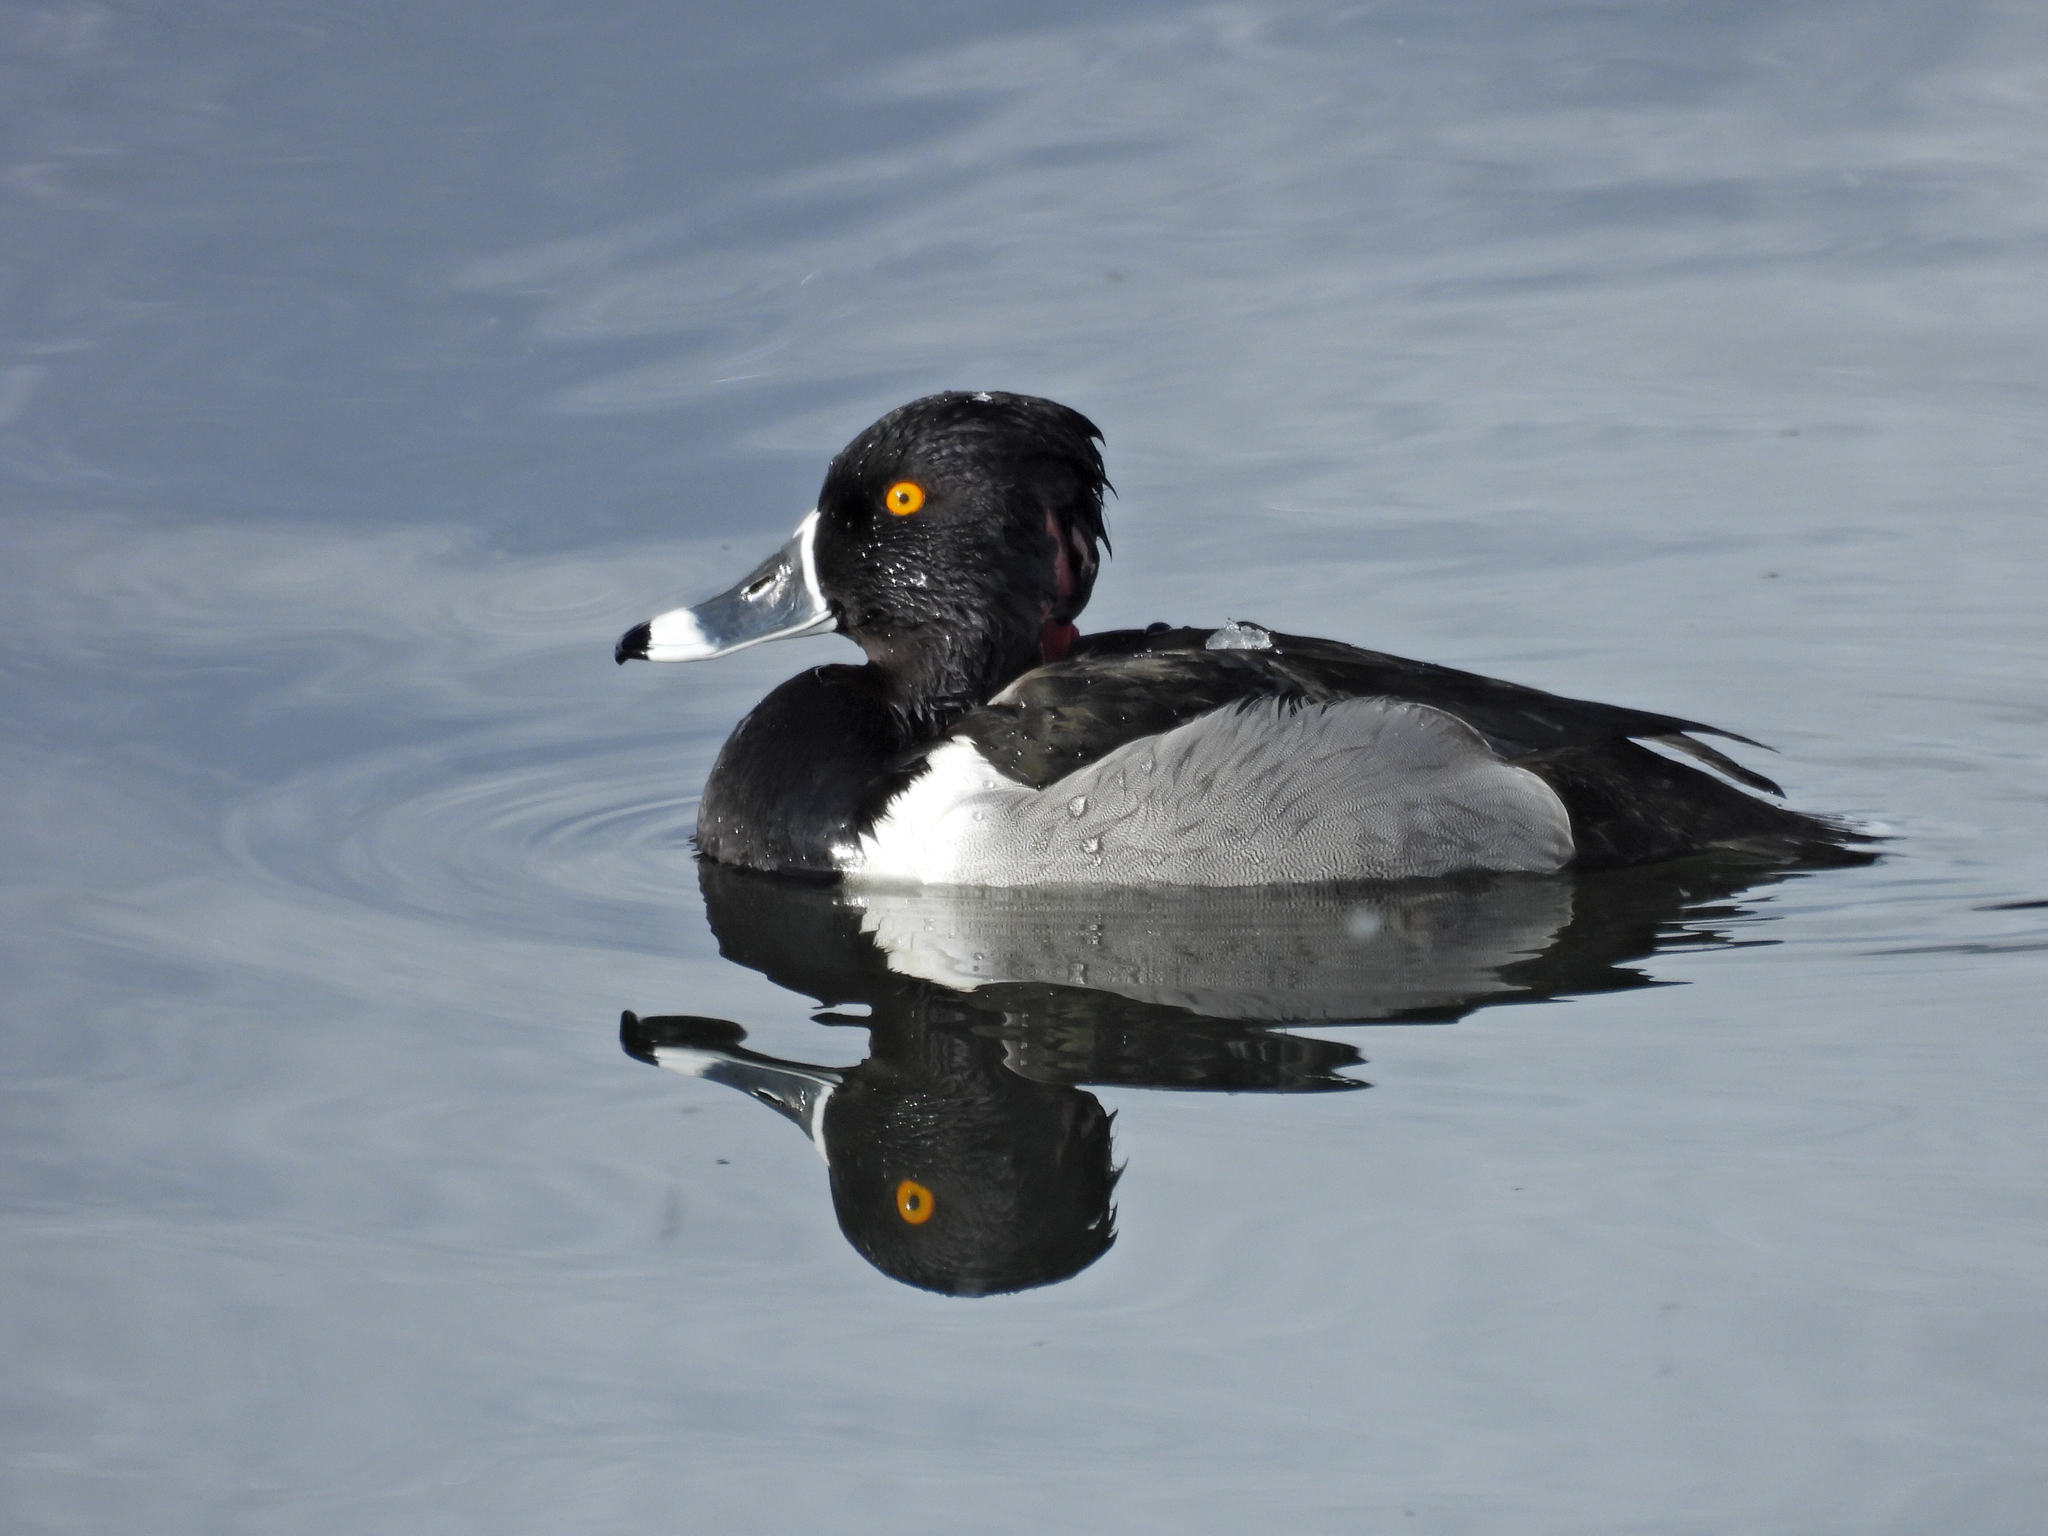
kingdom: Animalia
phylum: Chordata
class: Aves
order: Anseriformes
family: Anatidae
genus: Aythya
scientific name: Aythya collaris
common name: Ring-necked duck
